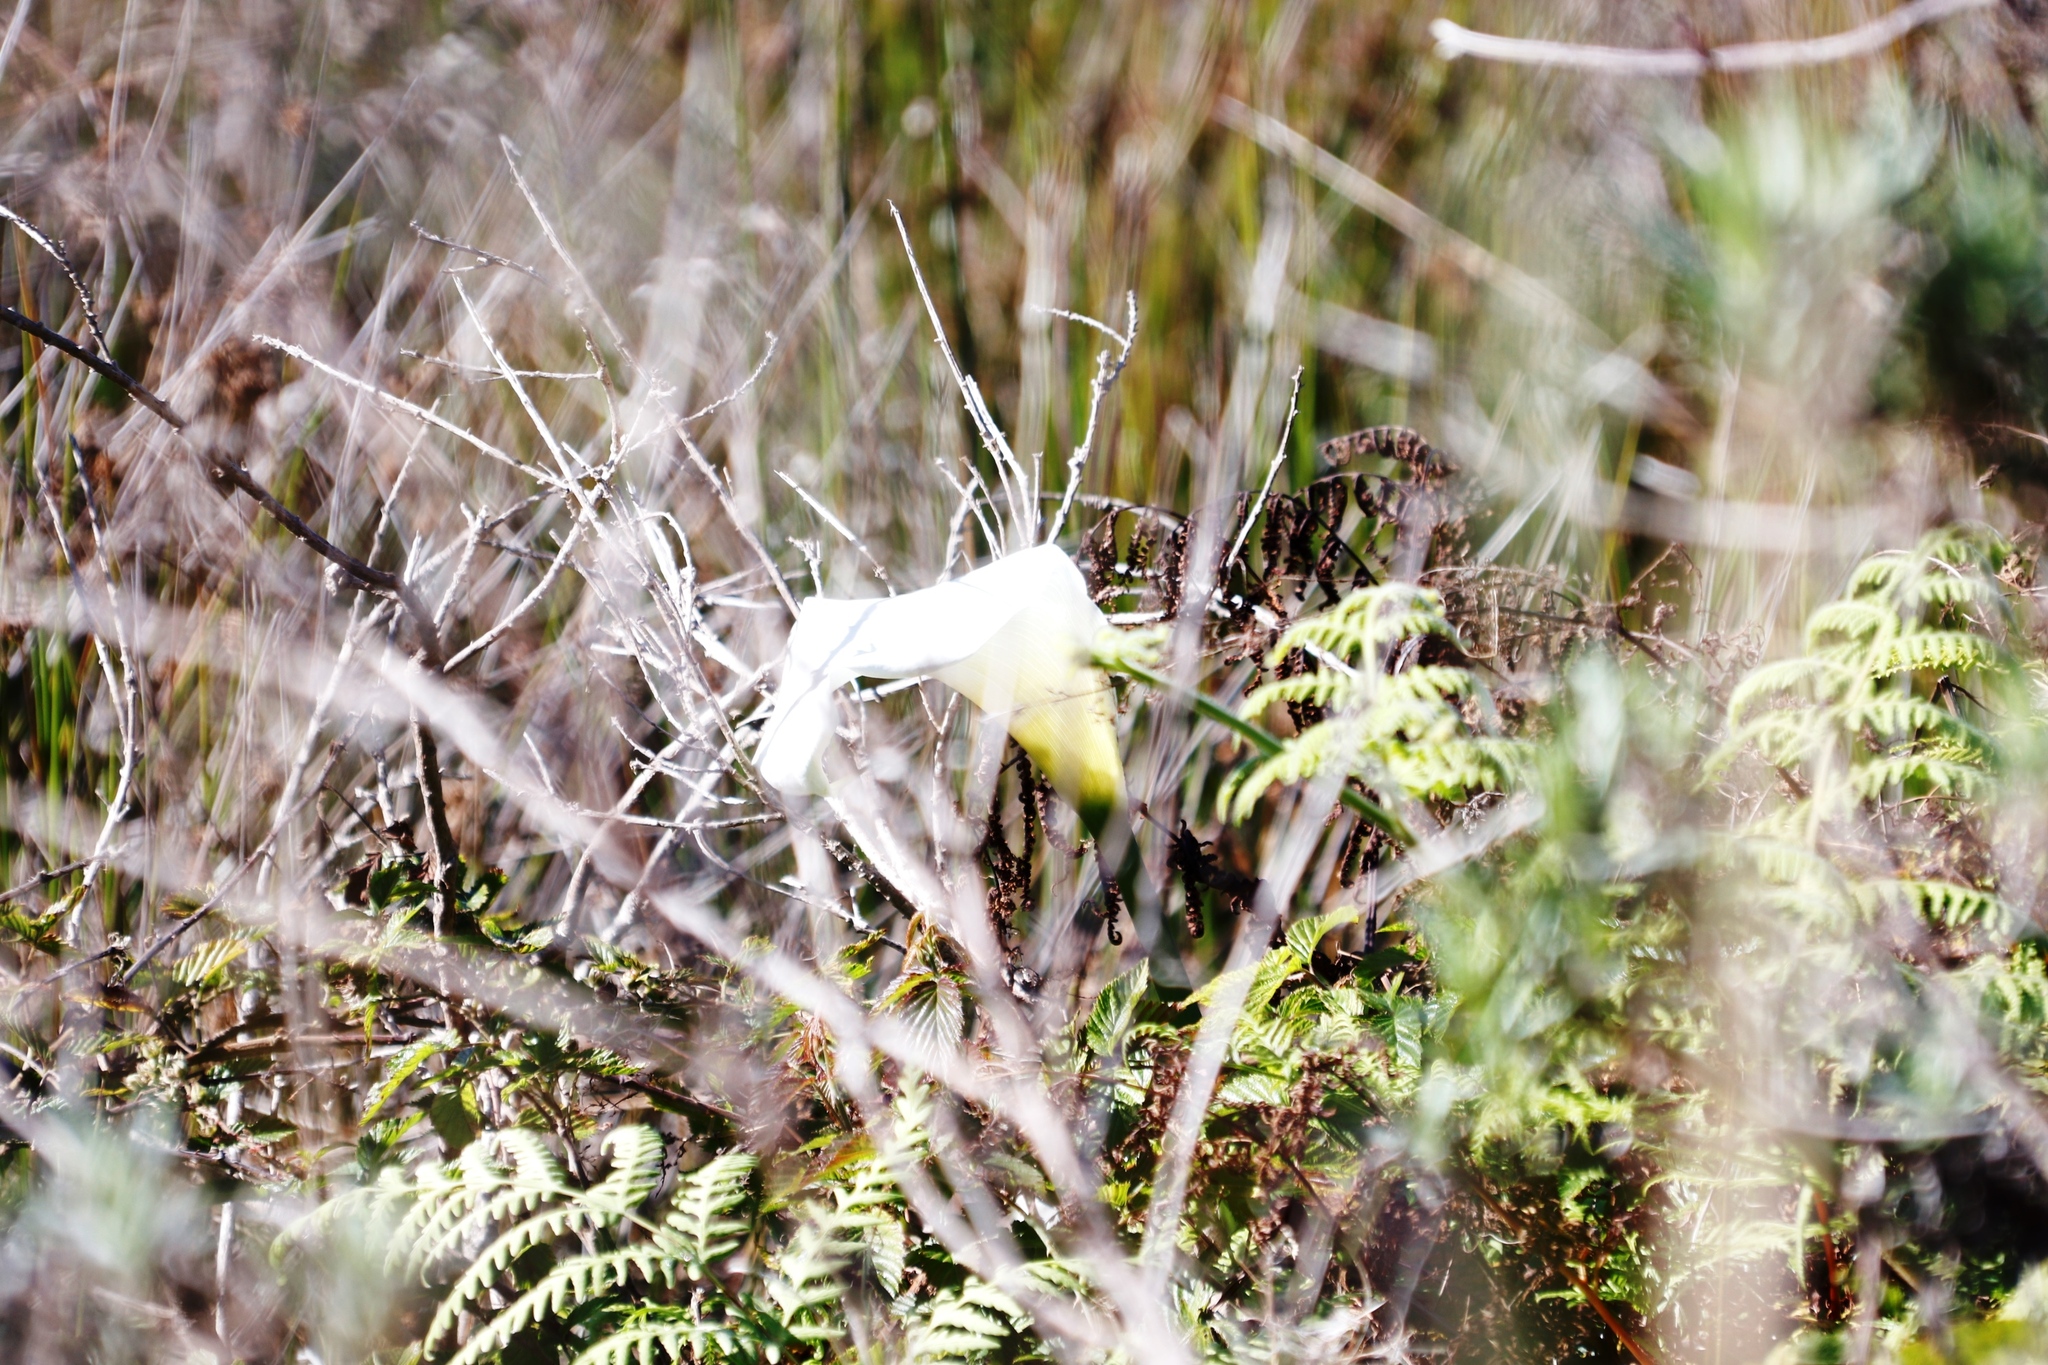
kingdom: Plantae
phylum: Tracheophyta
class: Liliopsida
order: Alismatales
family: Araceae
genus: Zantedeschia
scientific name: Zantedeschia aethiopica
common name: Altar-lily
